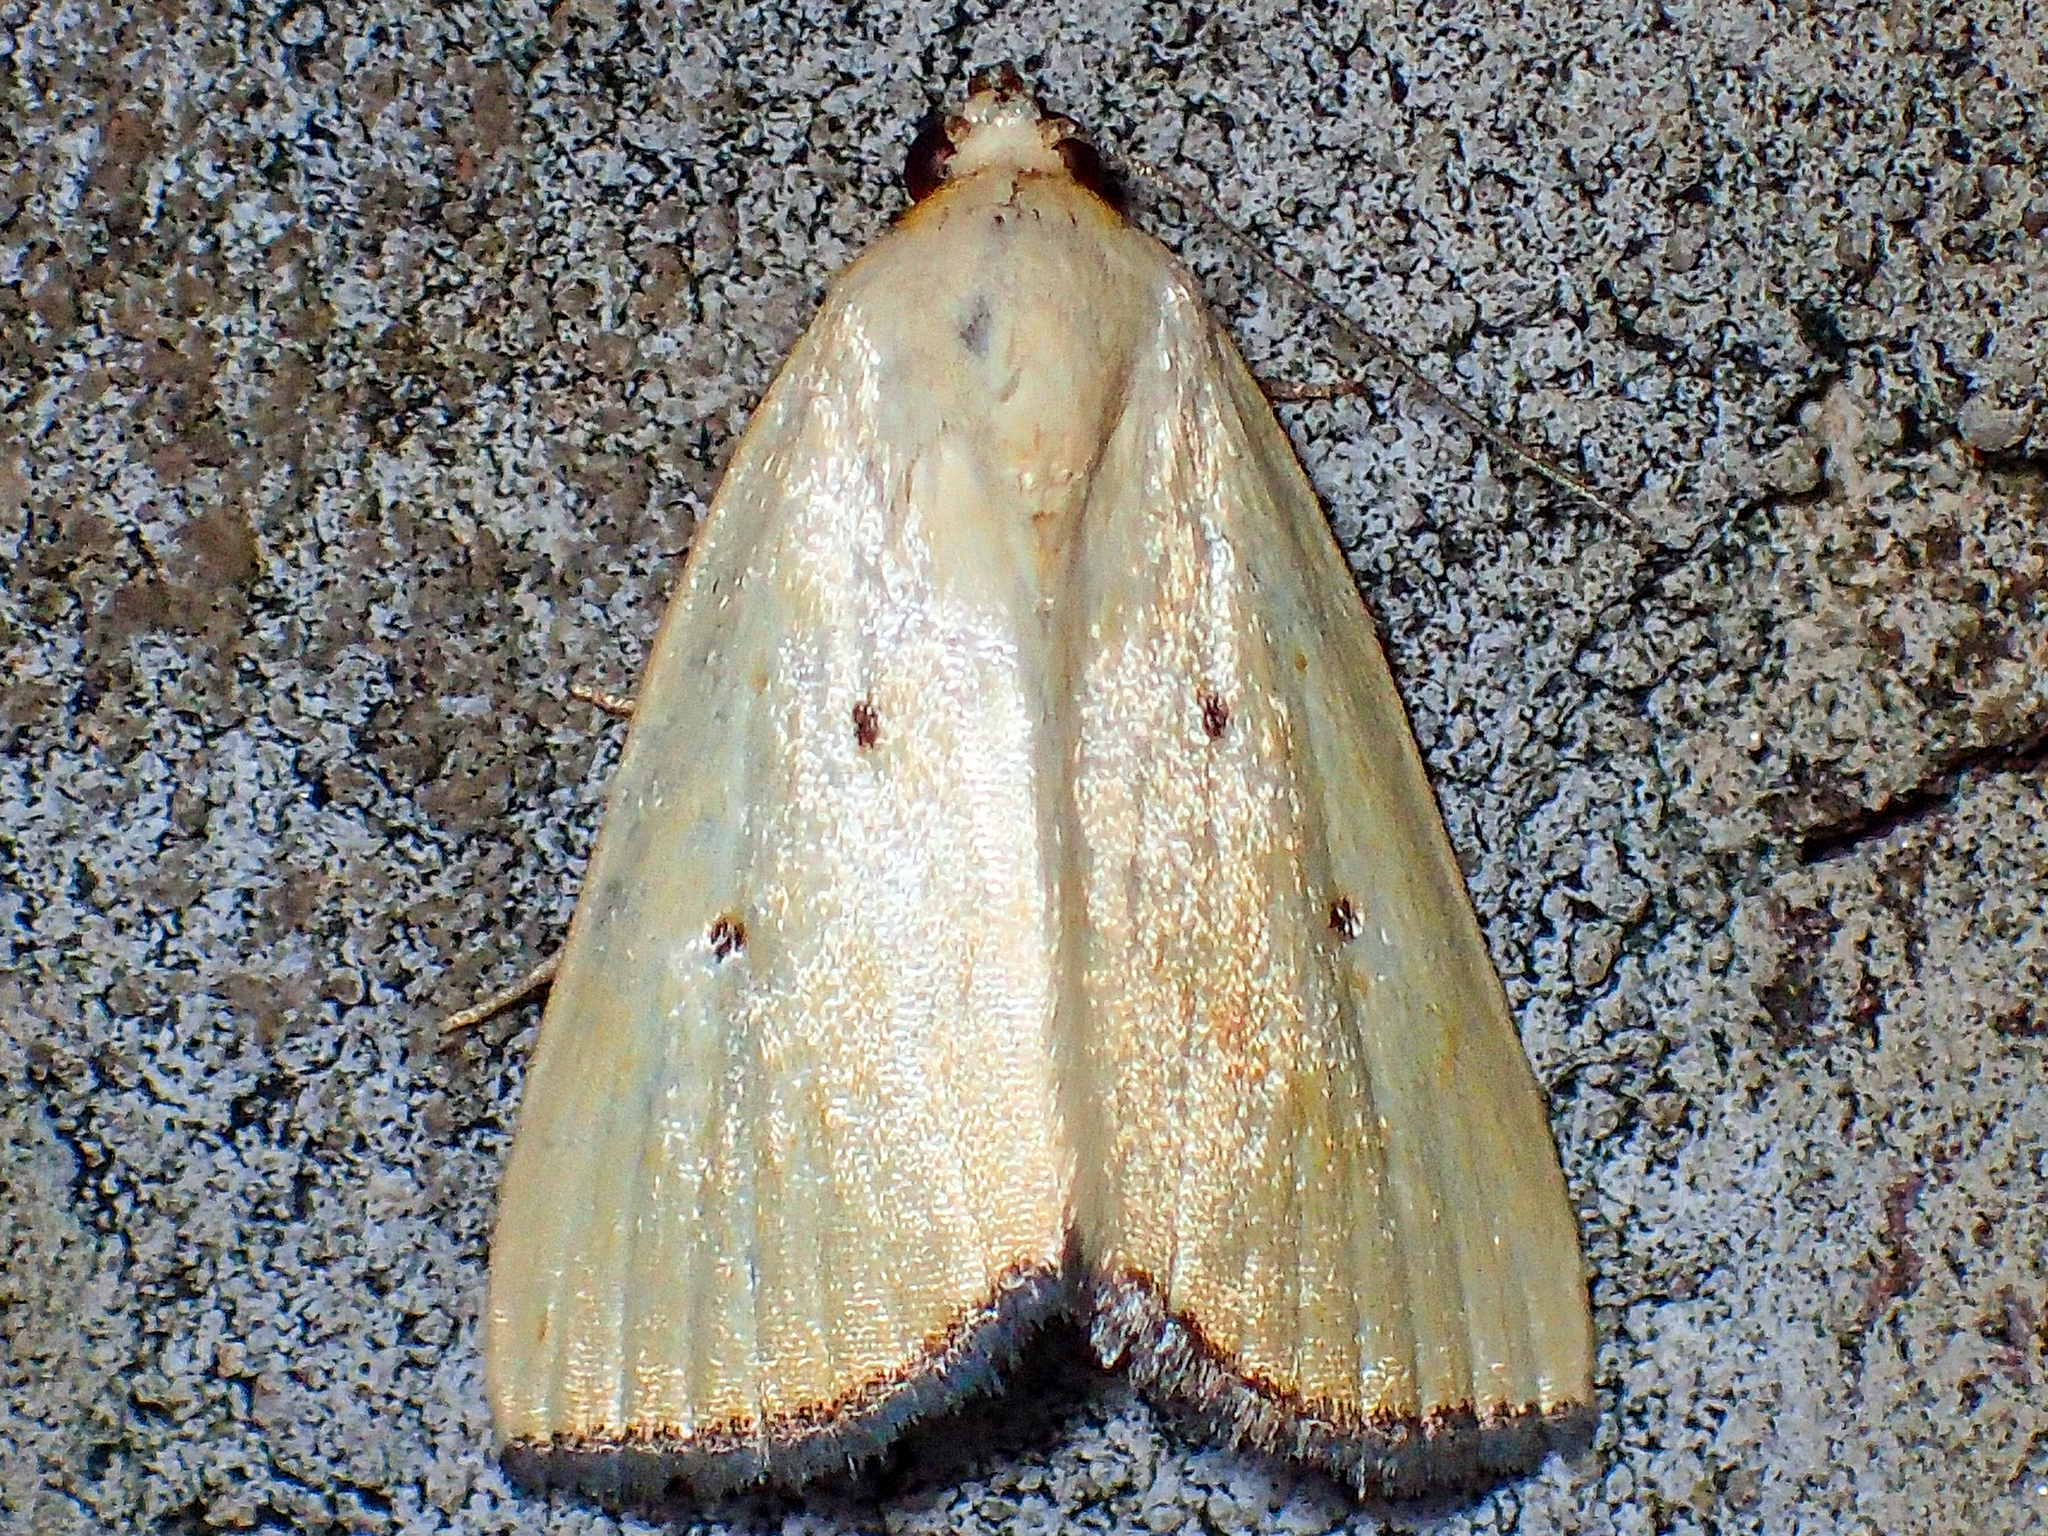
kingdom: Animalia
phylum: Arthropoda
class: Insecta
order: Lepidoptera
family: Noctuidae
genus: Marimatha
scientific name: Marimatha nigrofimbria
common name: Black-bordered lemon moth
